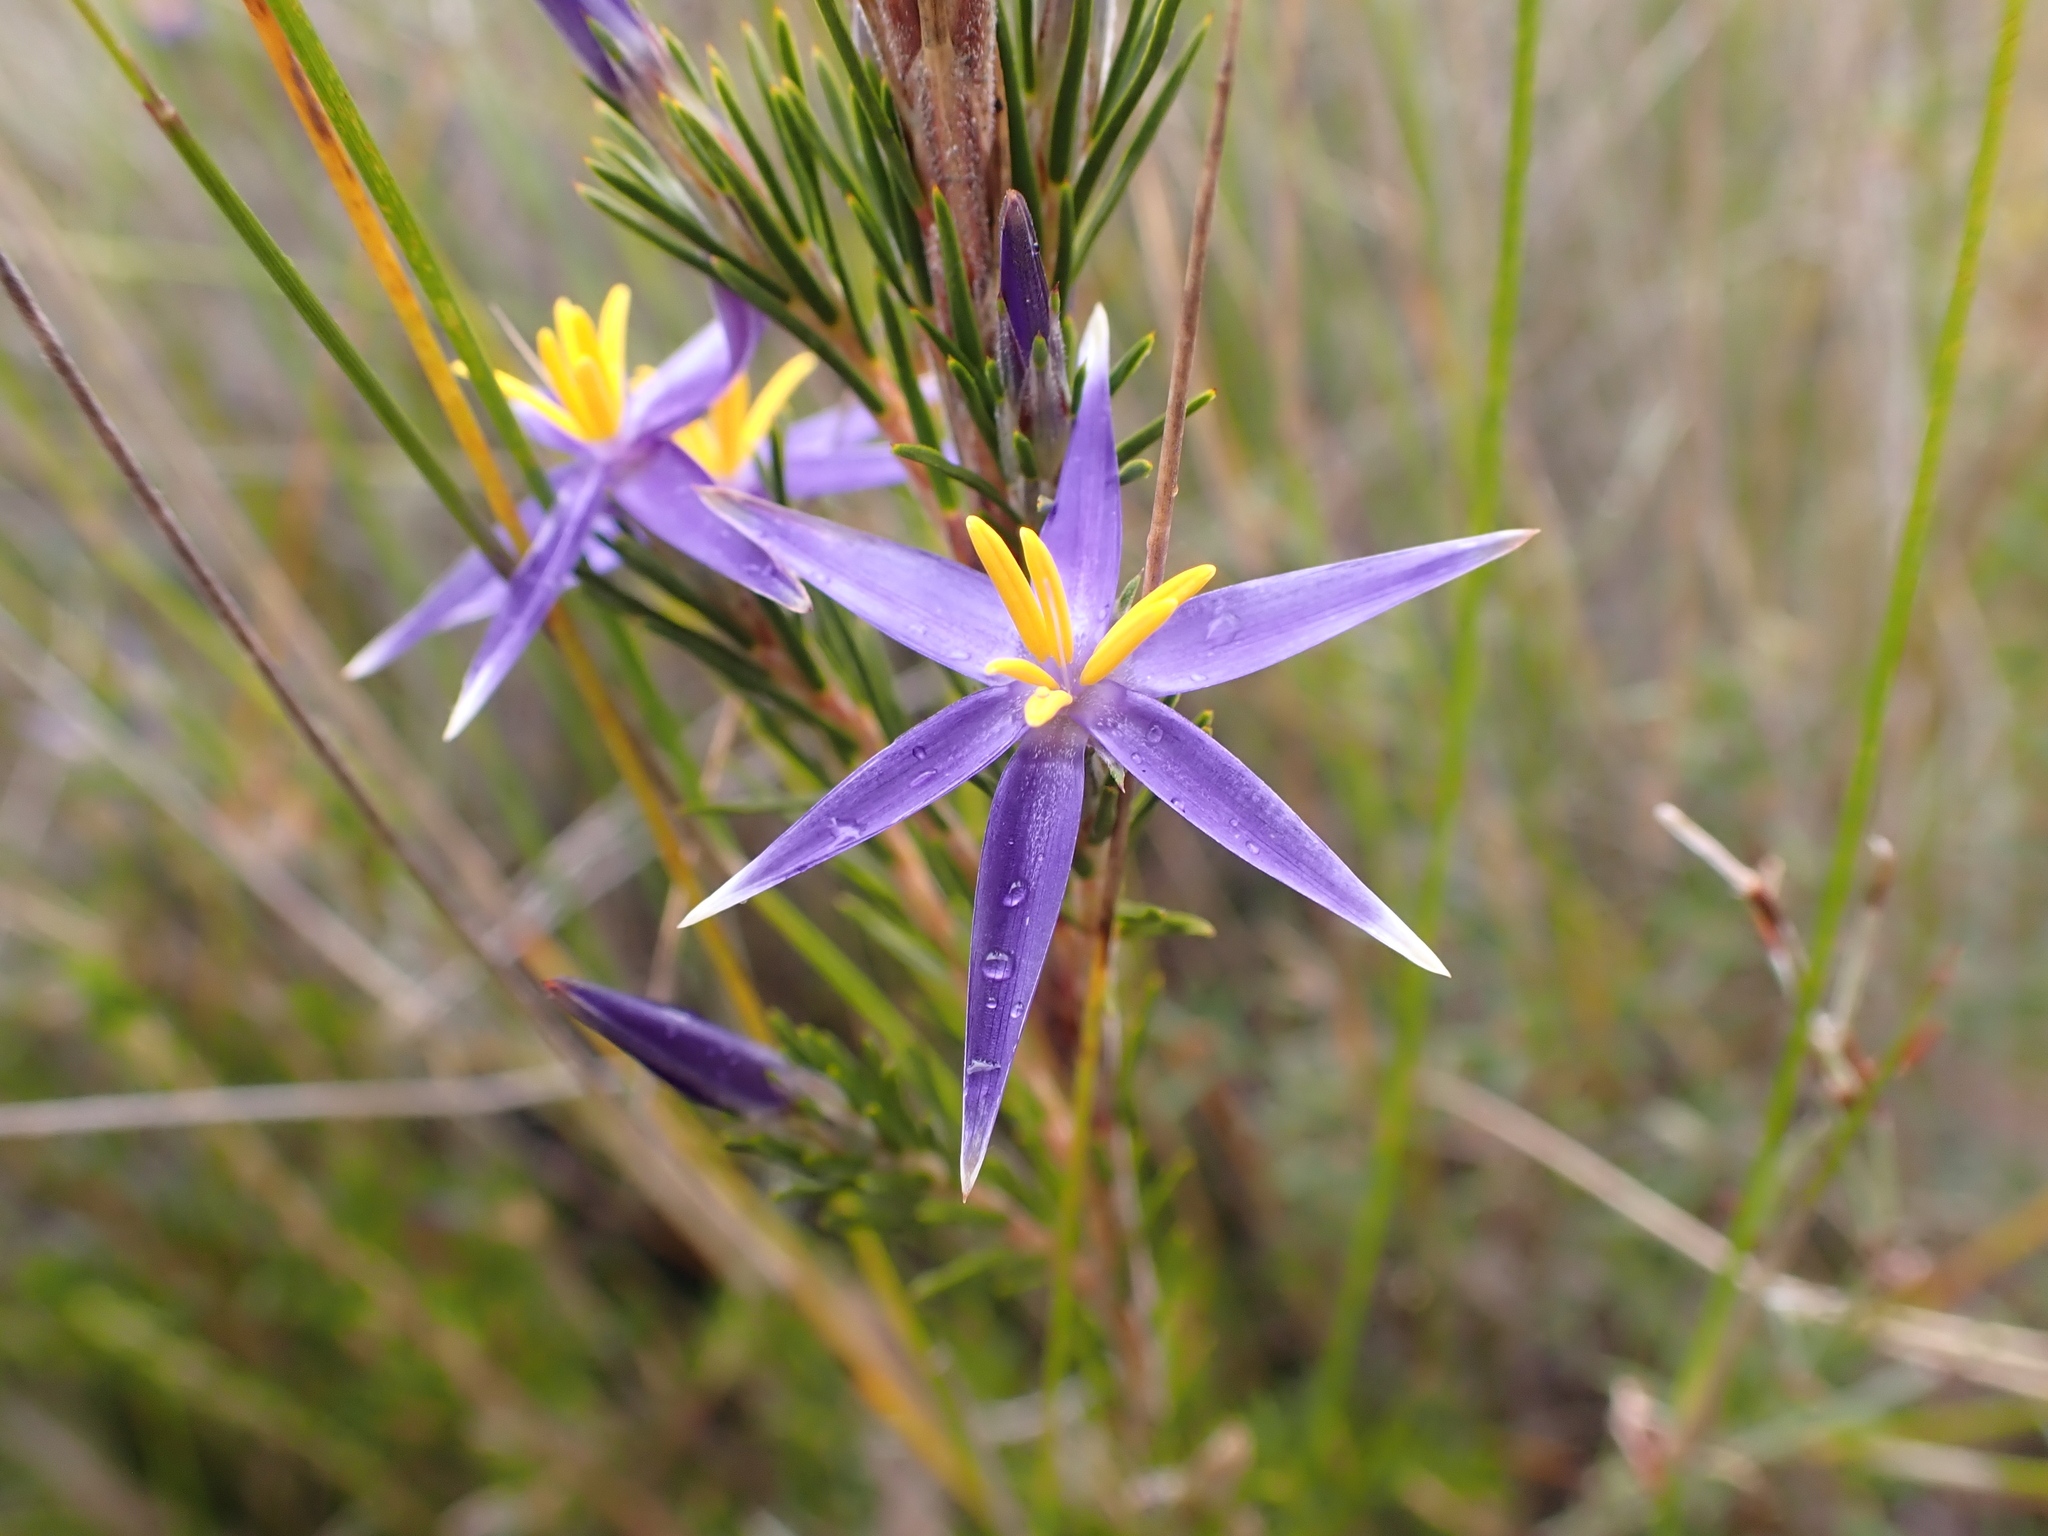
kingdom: Plantae
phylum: Tracheophyta
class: Liliopsida
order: Arecales
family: Dasypogonaceae
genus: Calectasia
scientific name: Calectasia intermedia
